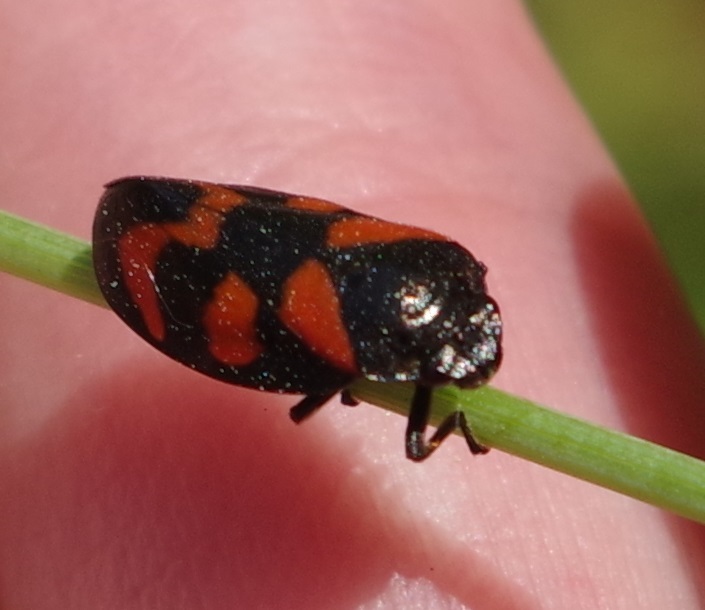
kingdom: Animalia
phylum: Arthropoda
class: Insecta
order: Hemiptera
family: Cercopidae
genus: Cercopis
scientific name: Cercopis vulnerata
